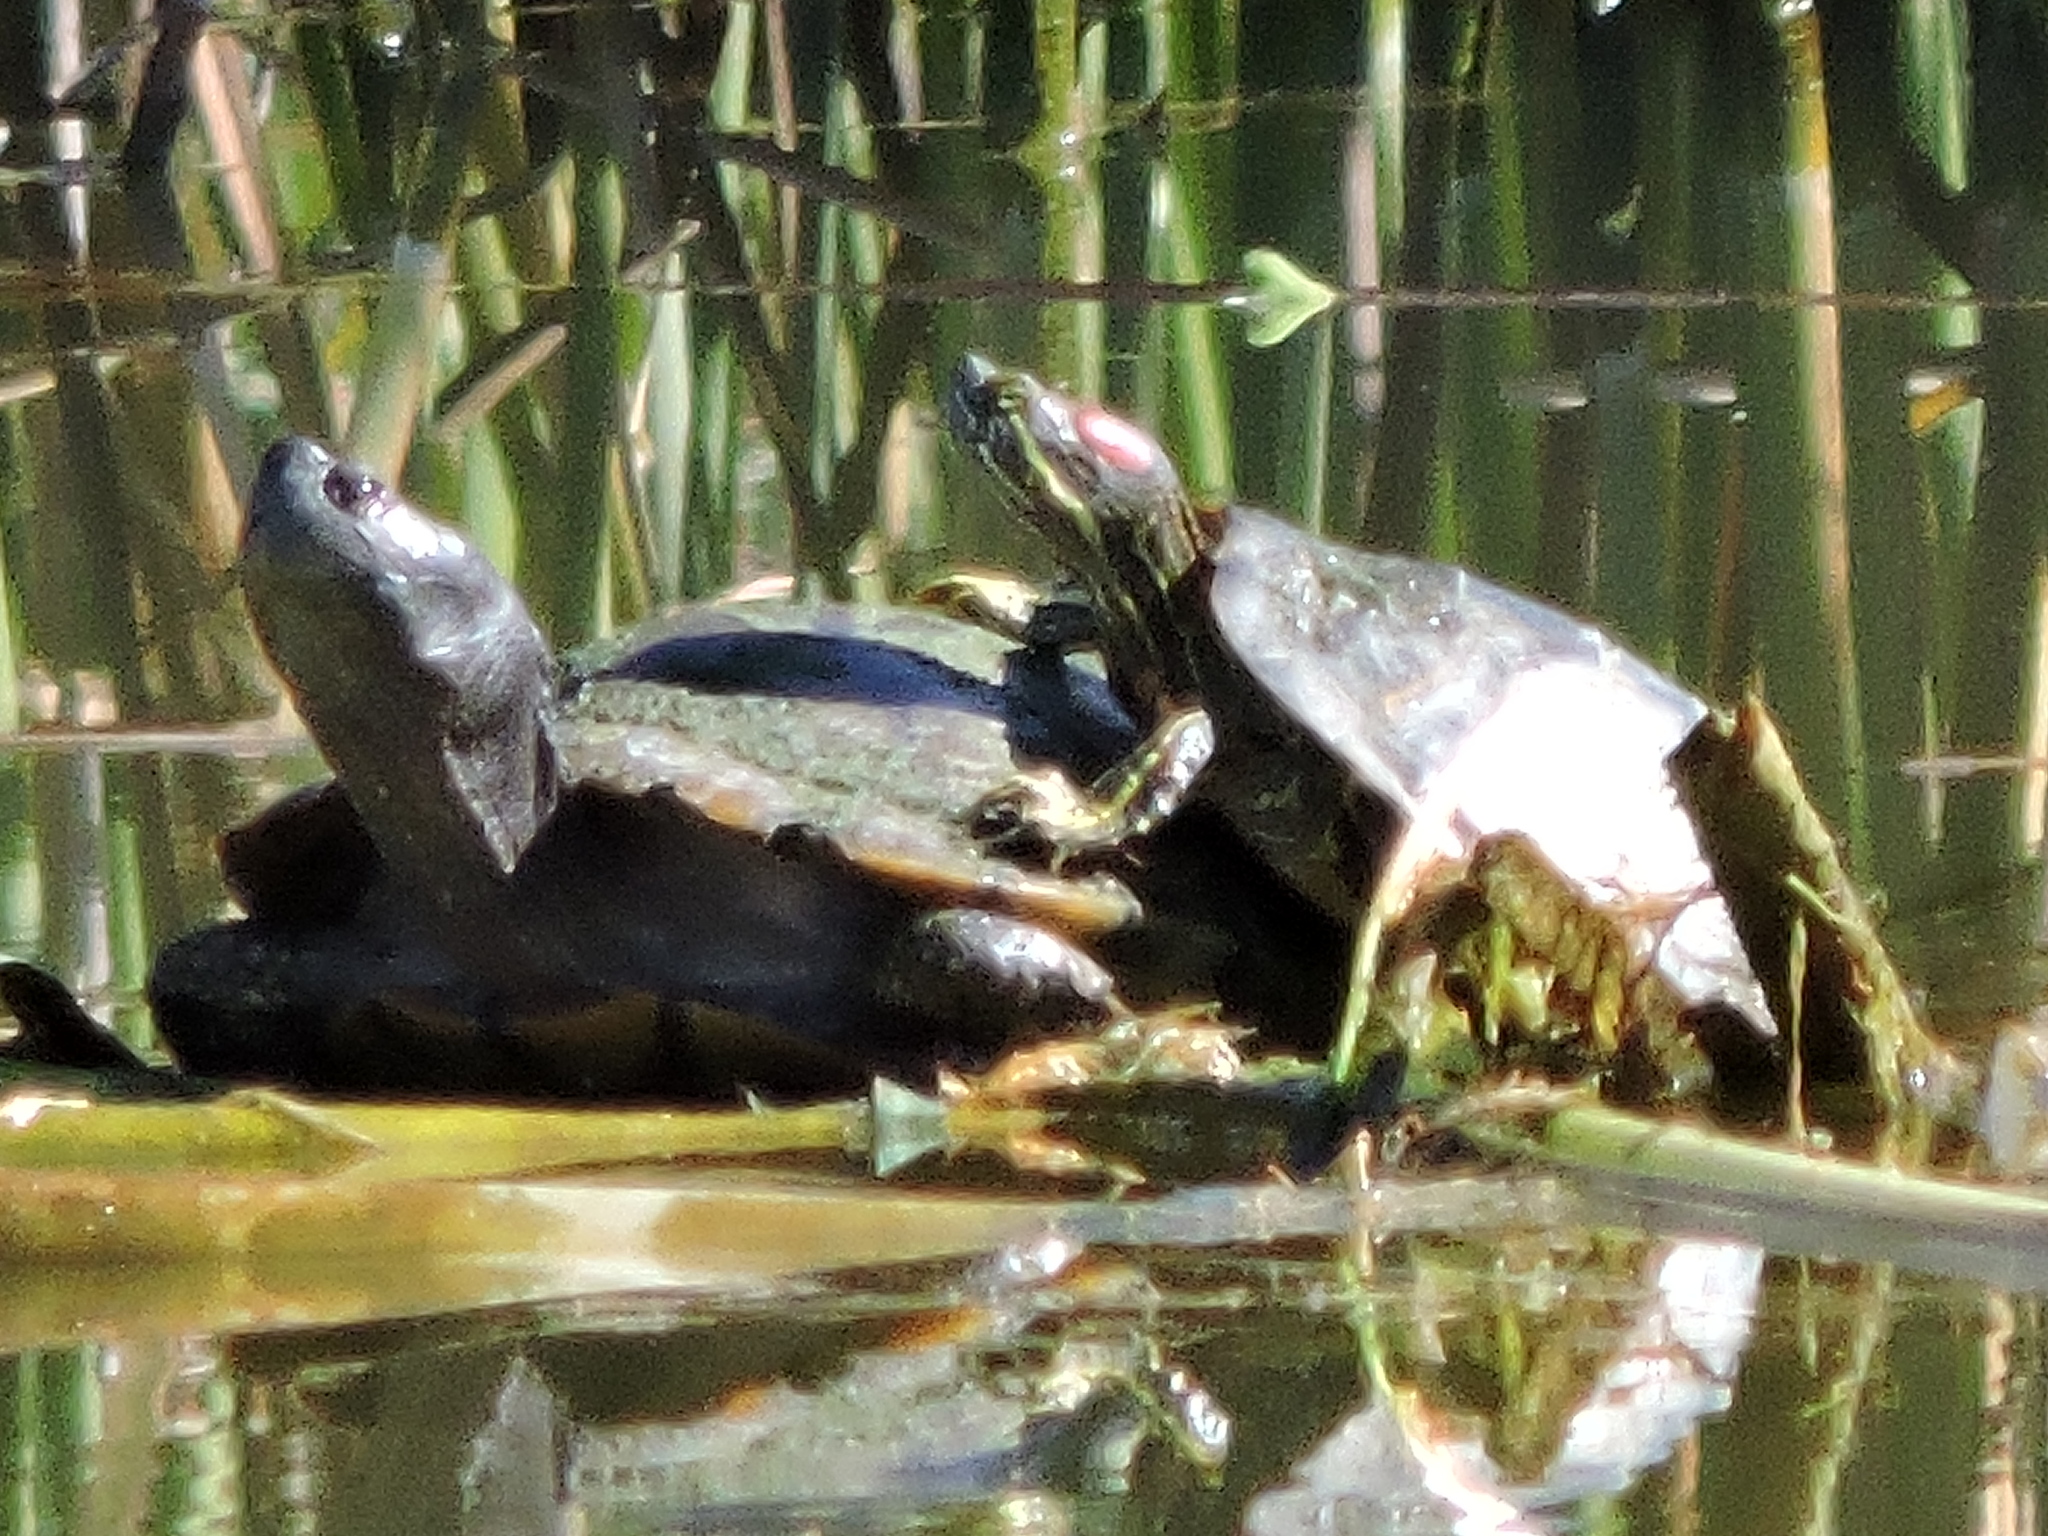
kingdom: Animalia
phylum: Chordata
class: Testudines
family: Emydidae
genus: Trachemys
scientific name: Trachemys scripta
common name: Slider
